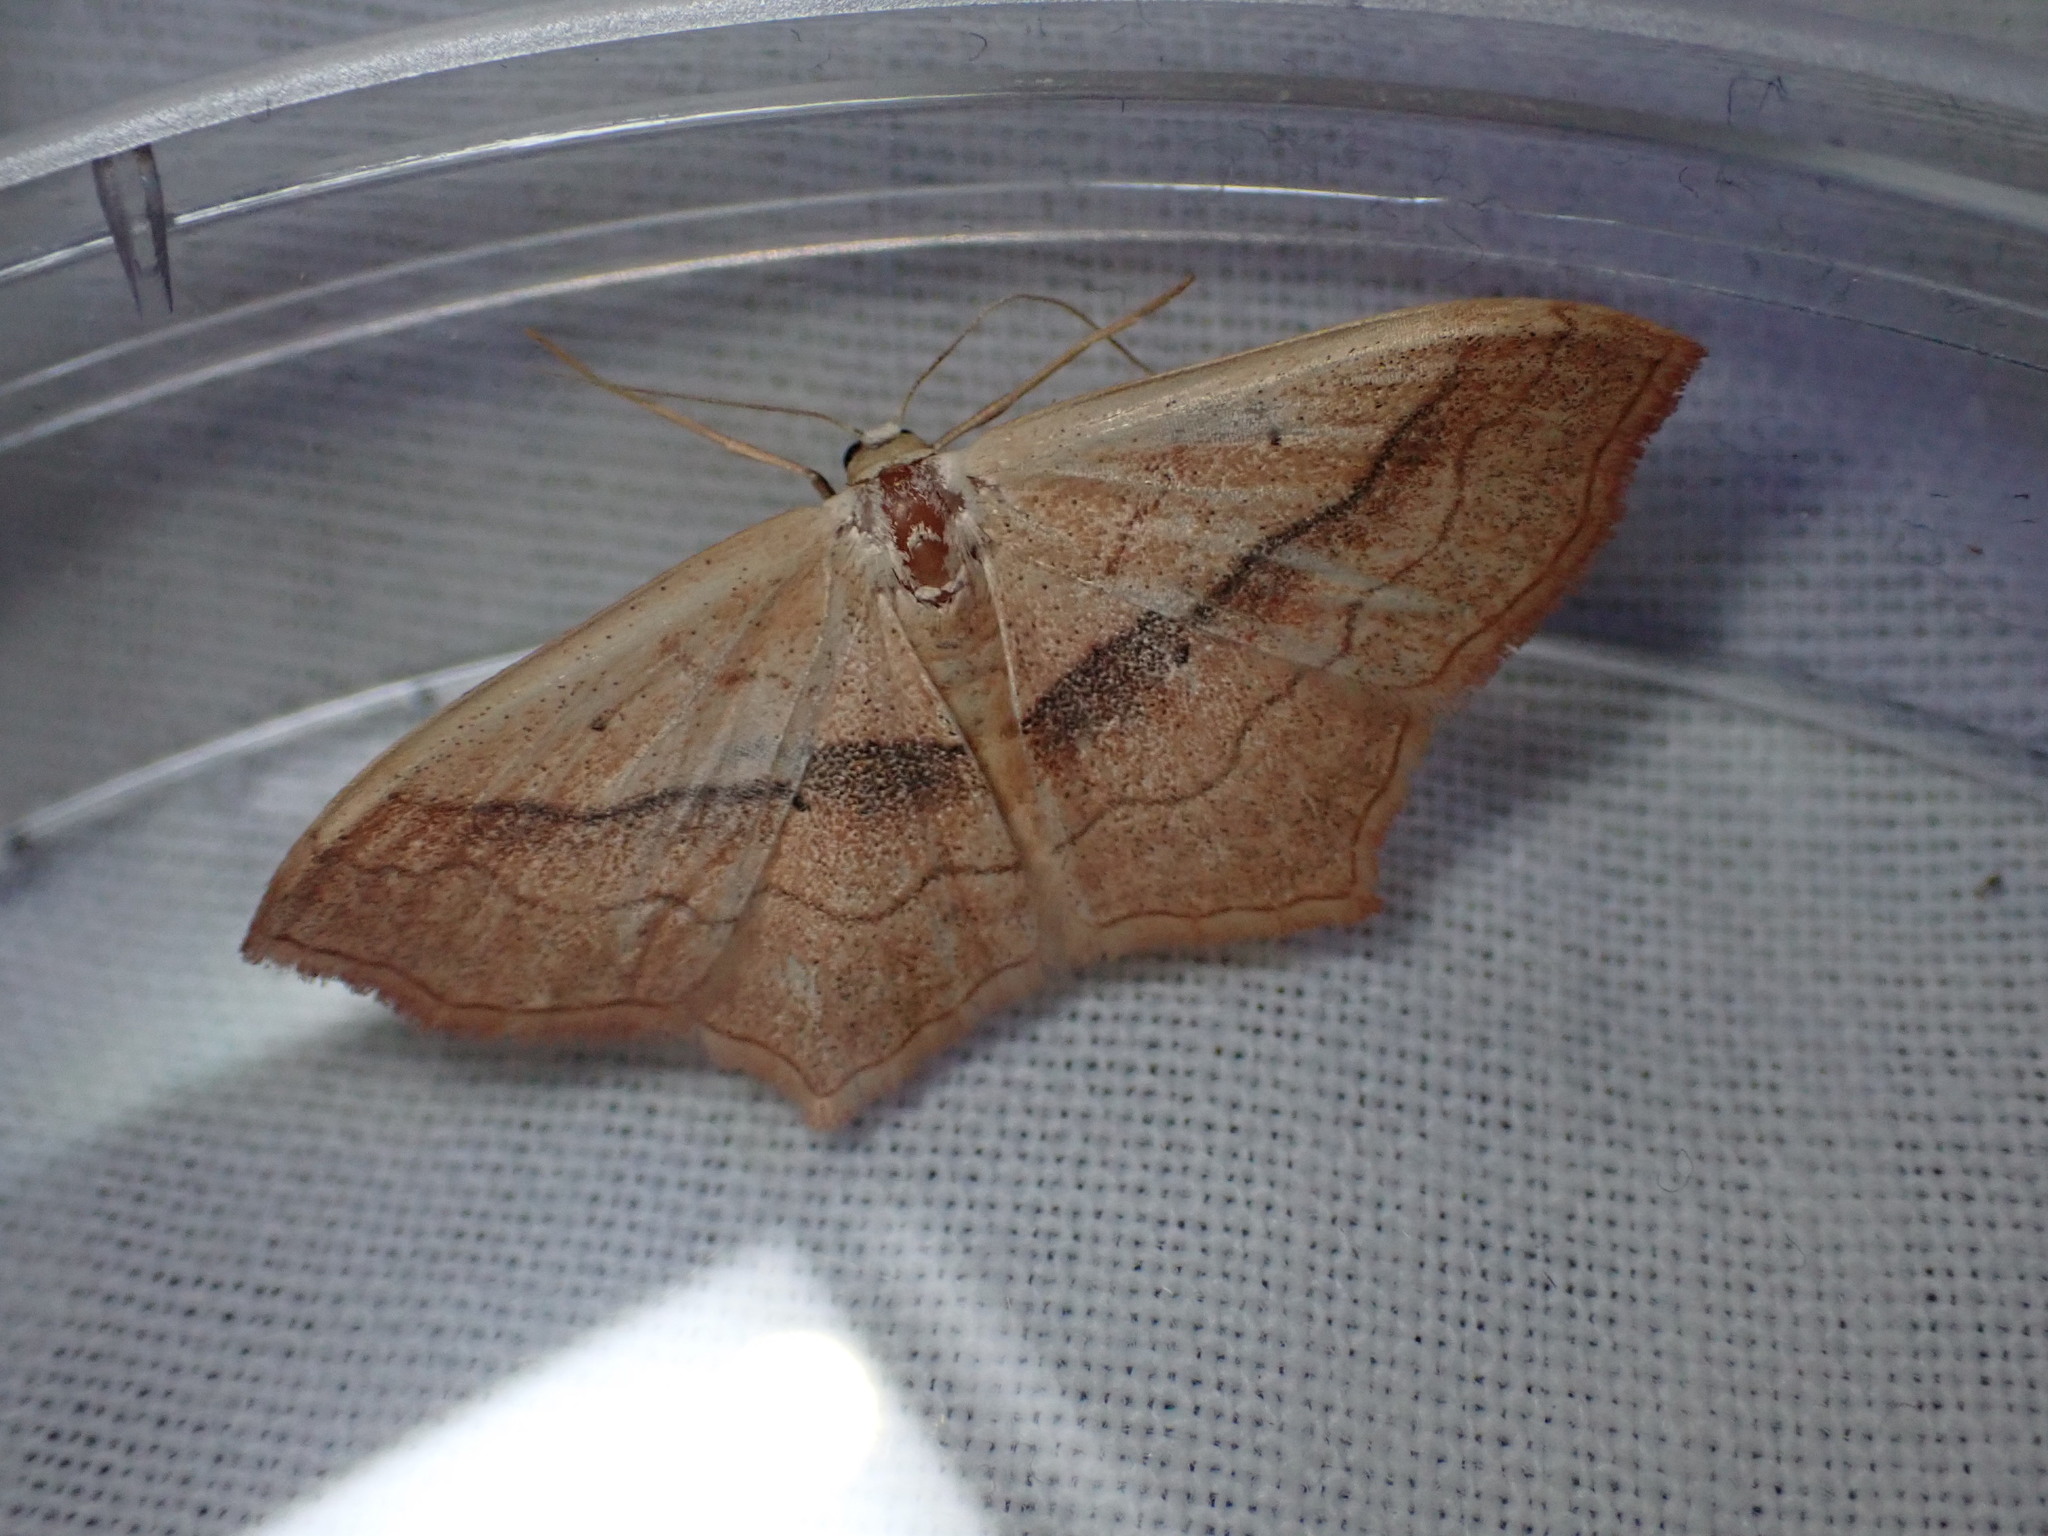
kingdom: Animalia
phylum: Arthropoda
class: Insecta
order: Lepidoptera
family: Geometridae
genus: Scopula
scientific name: Scopula imitaria
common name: Small blood-vein
